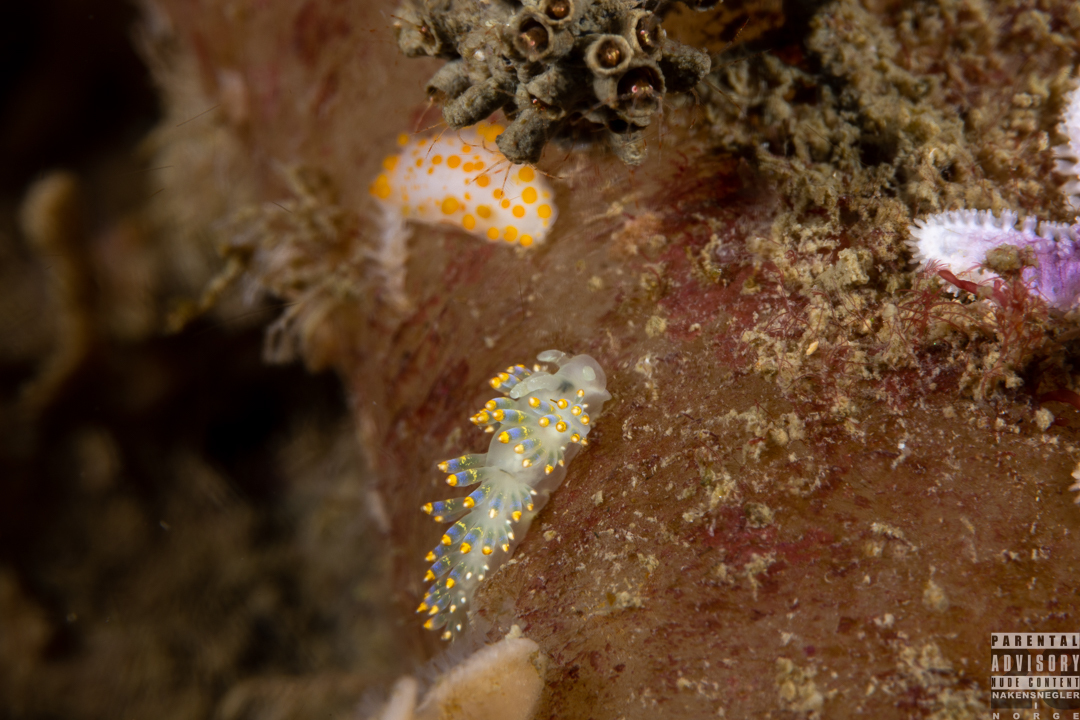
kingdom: Animalia
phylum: Mollusca
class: Gastropoda
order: Nudibranchia
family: Trinchesiidae
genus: Trinchesia
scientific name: Trinchesia cuanensis
